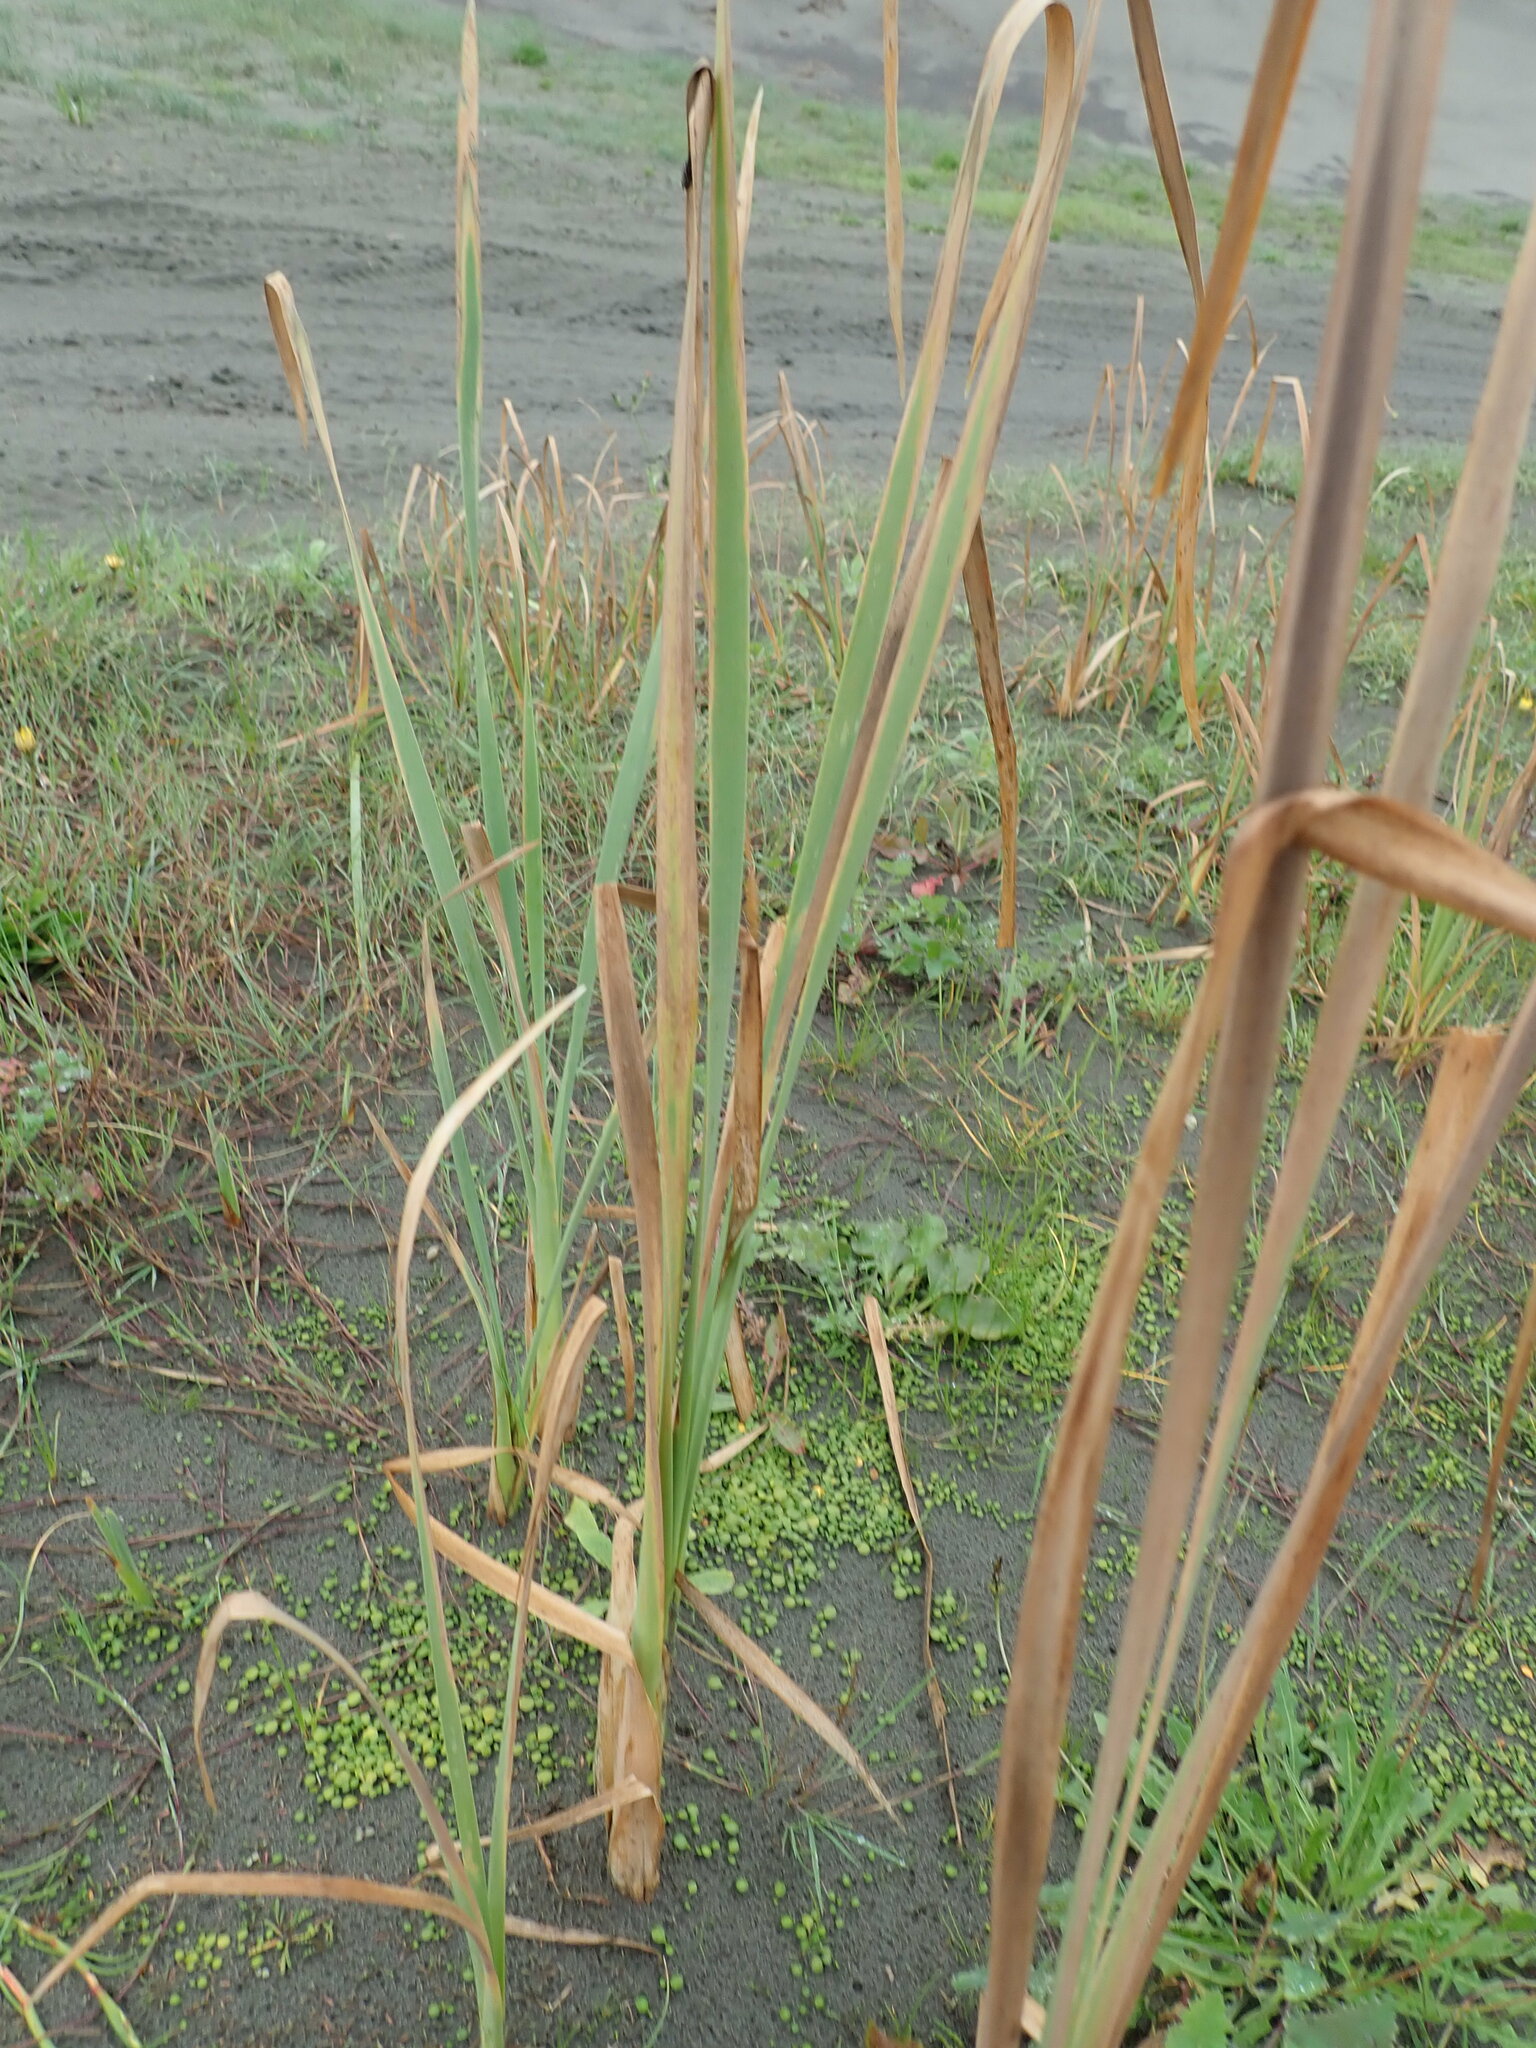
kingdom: Plantae
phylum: Tracheophyta
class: Liliopsida
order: Poales
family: Typhaceae
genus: Typha
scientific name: Typha orientalis
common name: Bullrush
